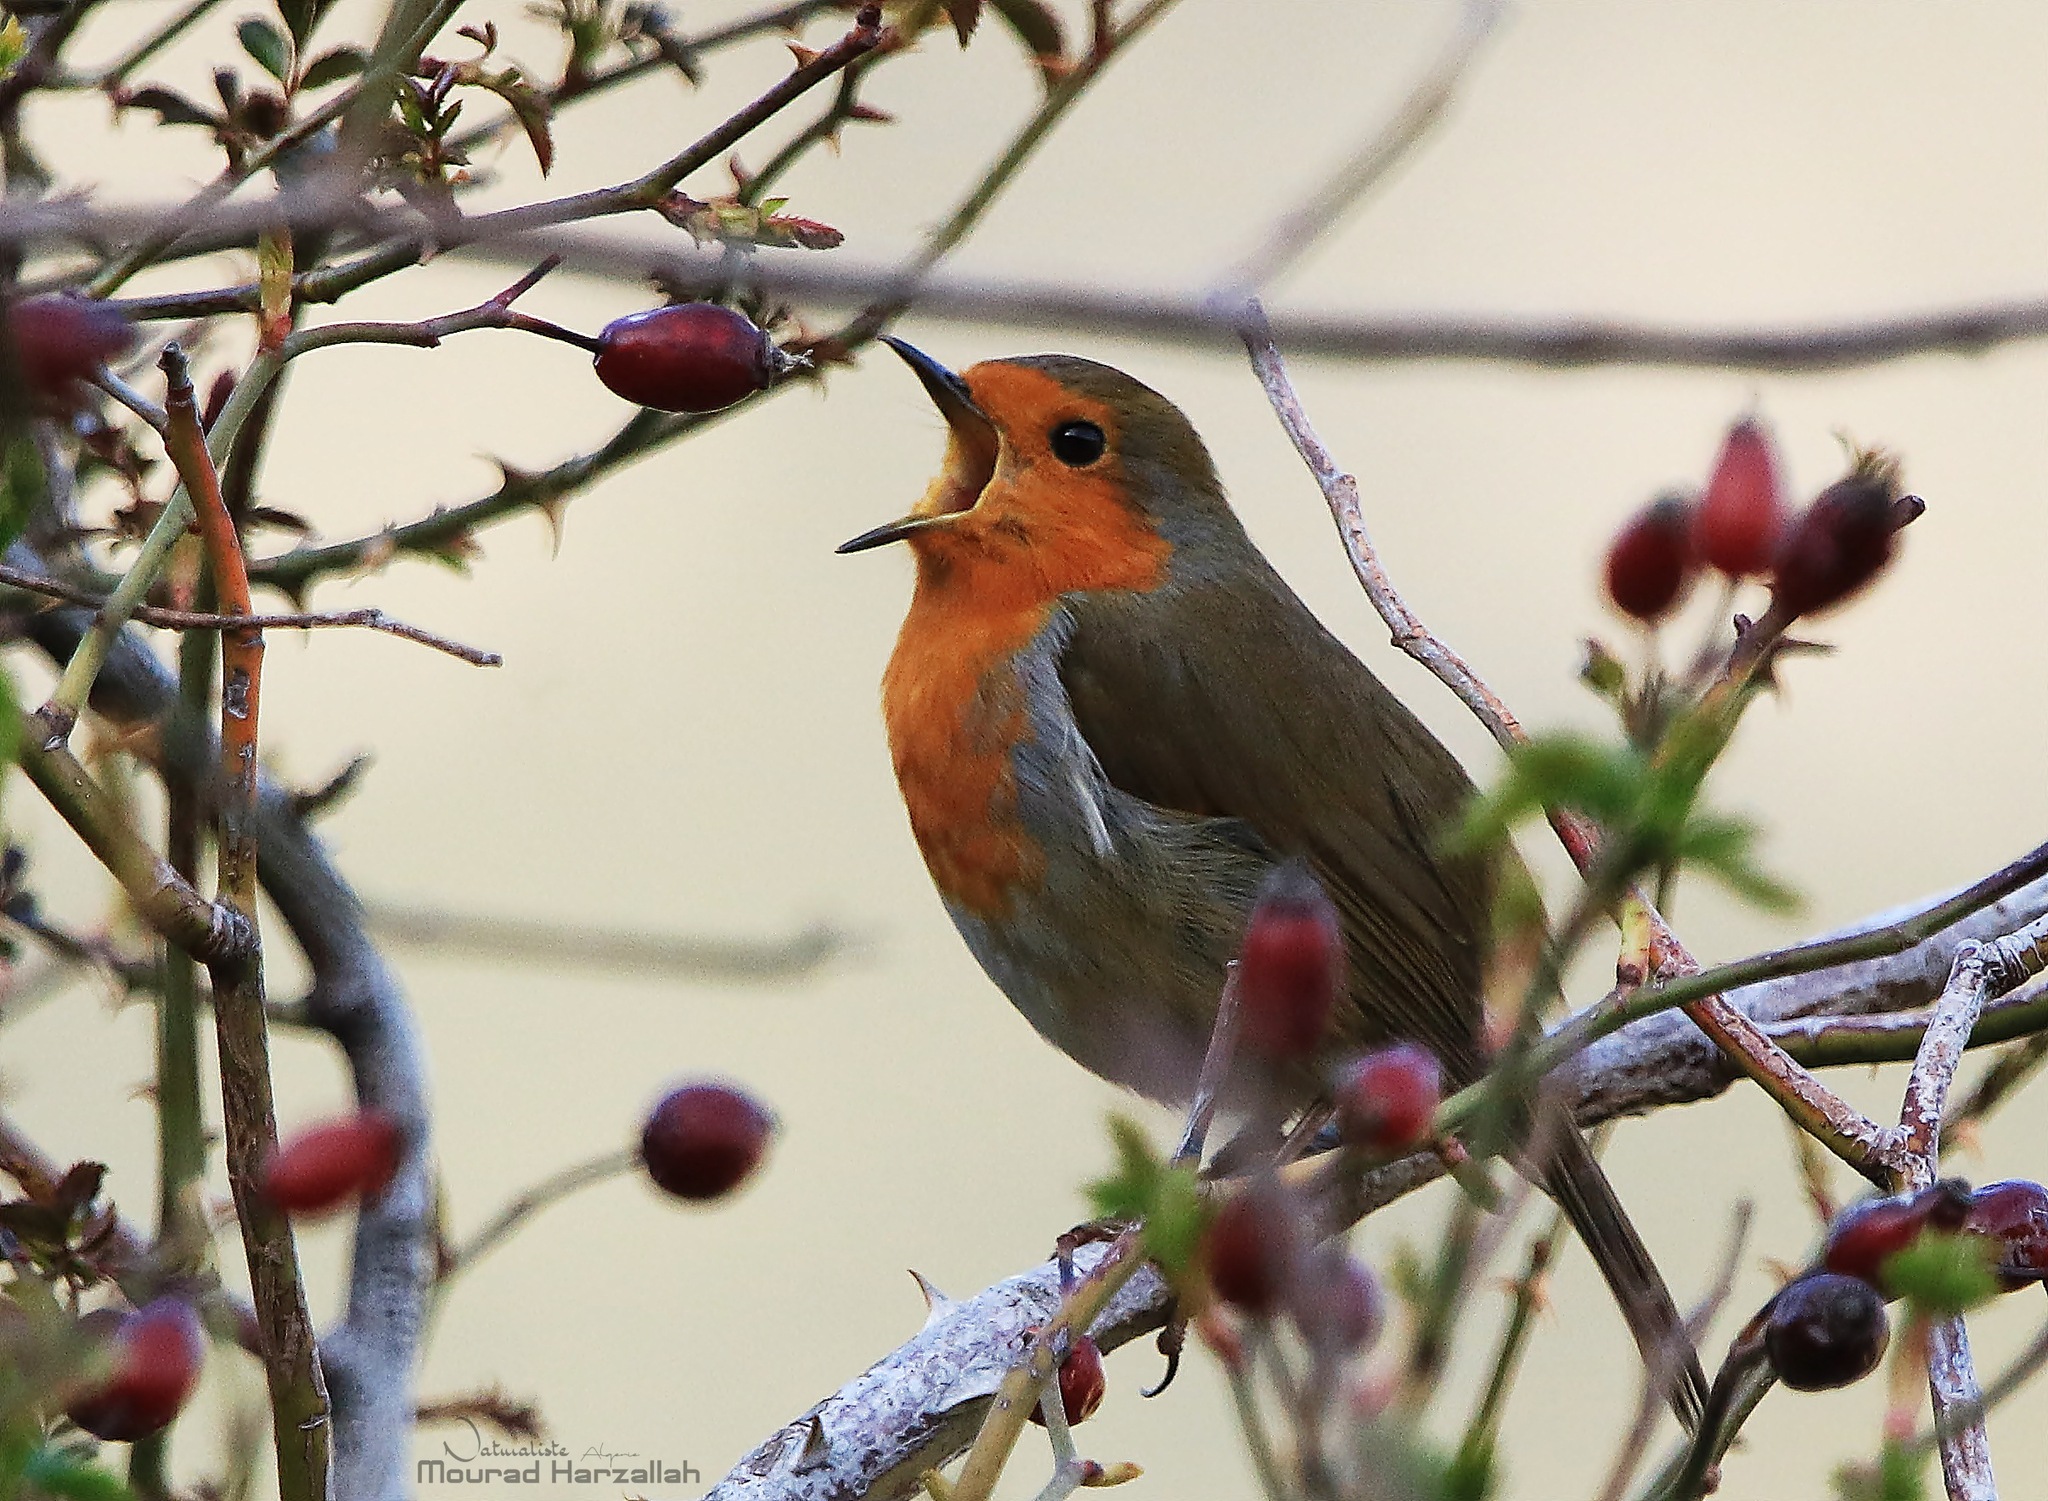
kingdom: Animalia
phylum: Chordata
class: Aves
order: Passeriformes
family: Muscicapidae
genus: Erithacus
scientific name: Erithacus rubecula
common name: European robin
